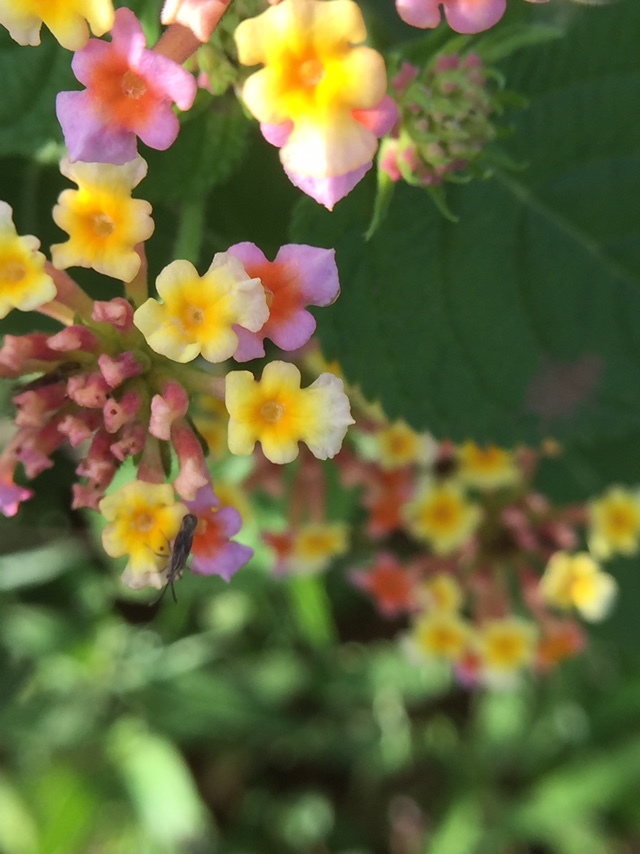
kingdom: Plantae
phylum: Tracheophyta
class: Magnoliopsida
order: Lamiales
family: Verbenaceae
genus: Lantana
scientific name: Lantana camara
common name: Lantana
